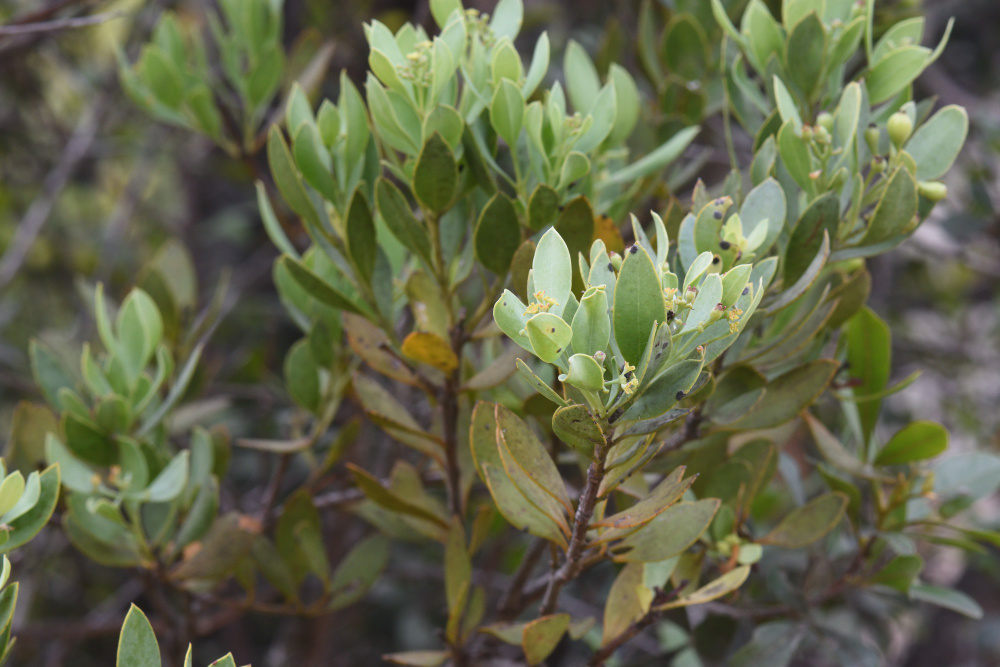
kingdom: Plantae
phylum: Tracheophyta
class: Magnoliopsida
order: Santalales
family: Santalaceae
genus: Osyris
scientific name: Osyris compressa
